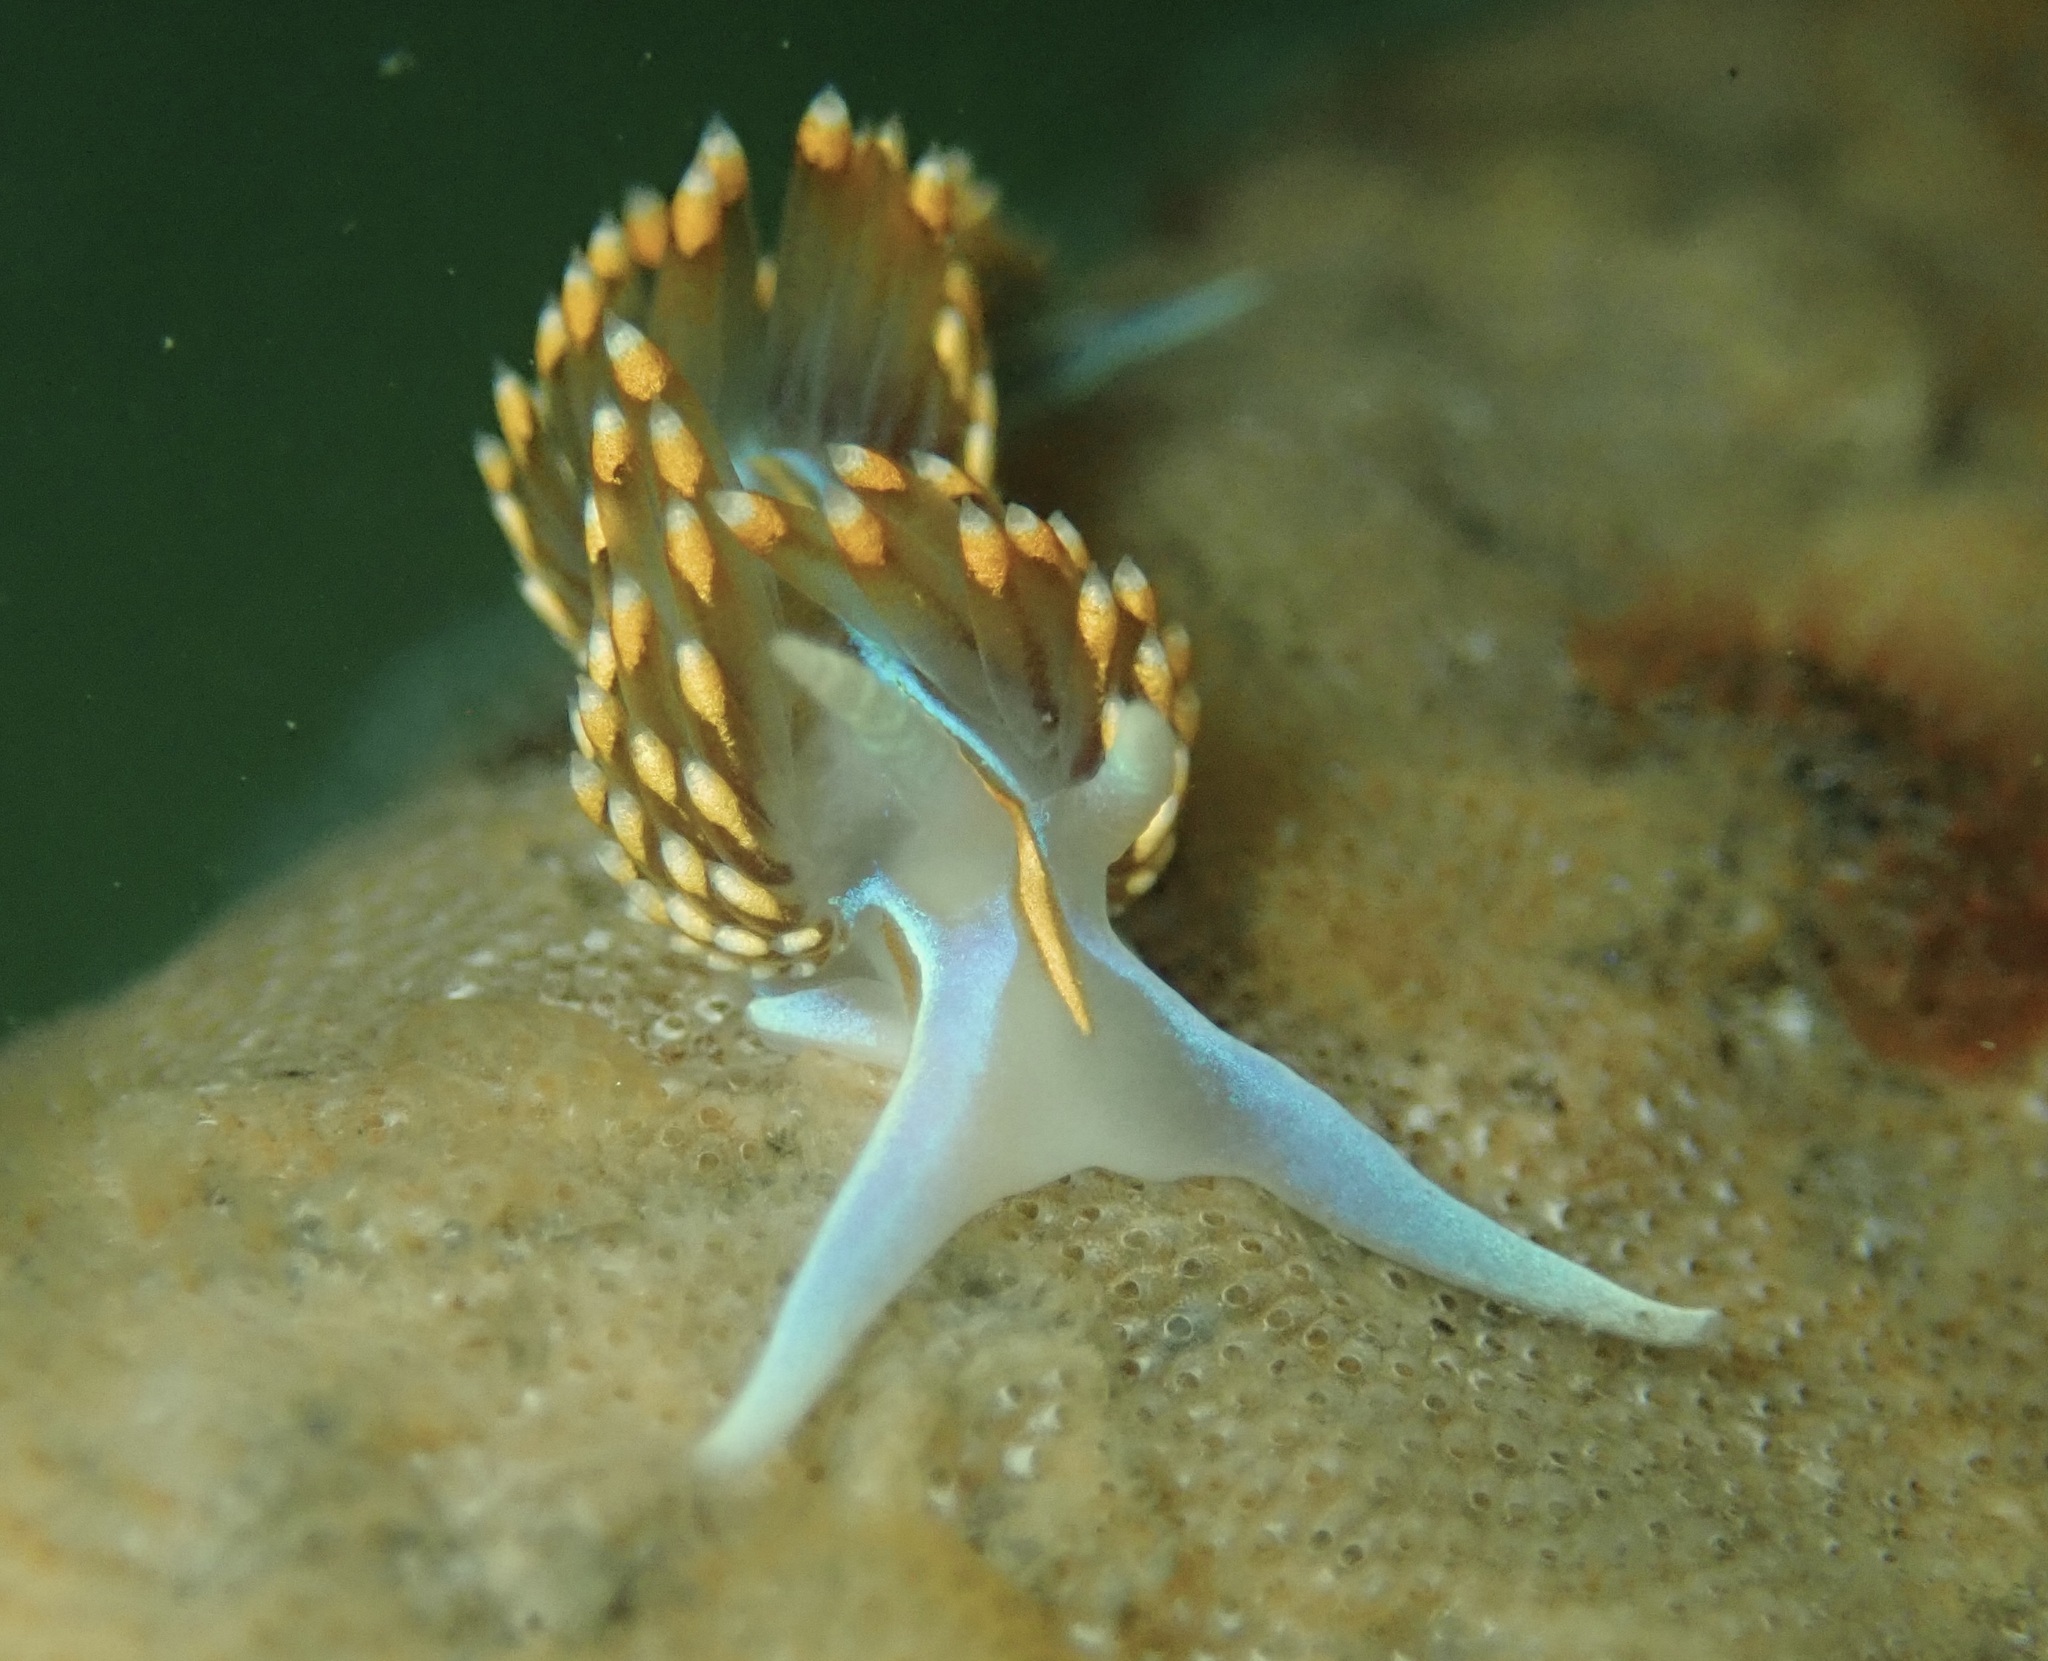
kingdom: Animalia
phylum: Mollusca
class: Gastropoda
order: Nudibranchia
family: Myrrhinidae
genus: Hermissenda
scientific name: Hermissenda opalescens
